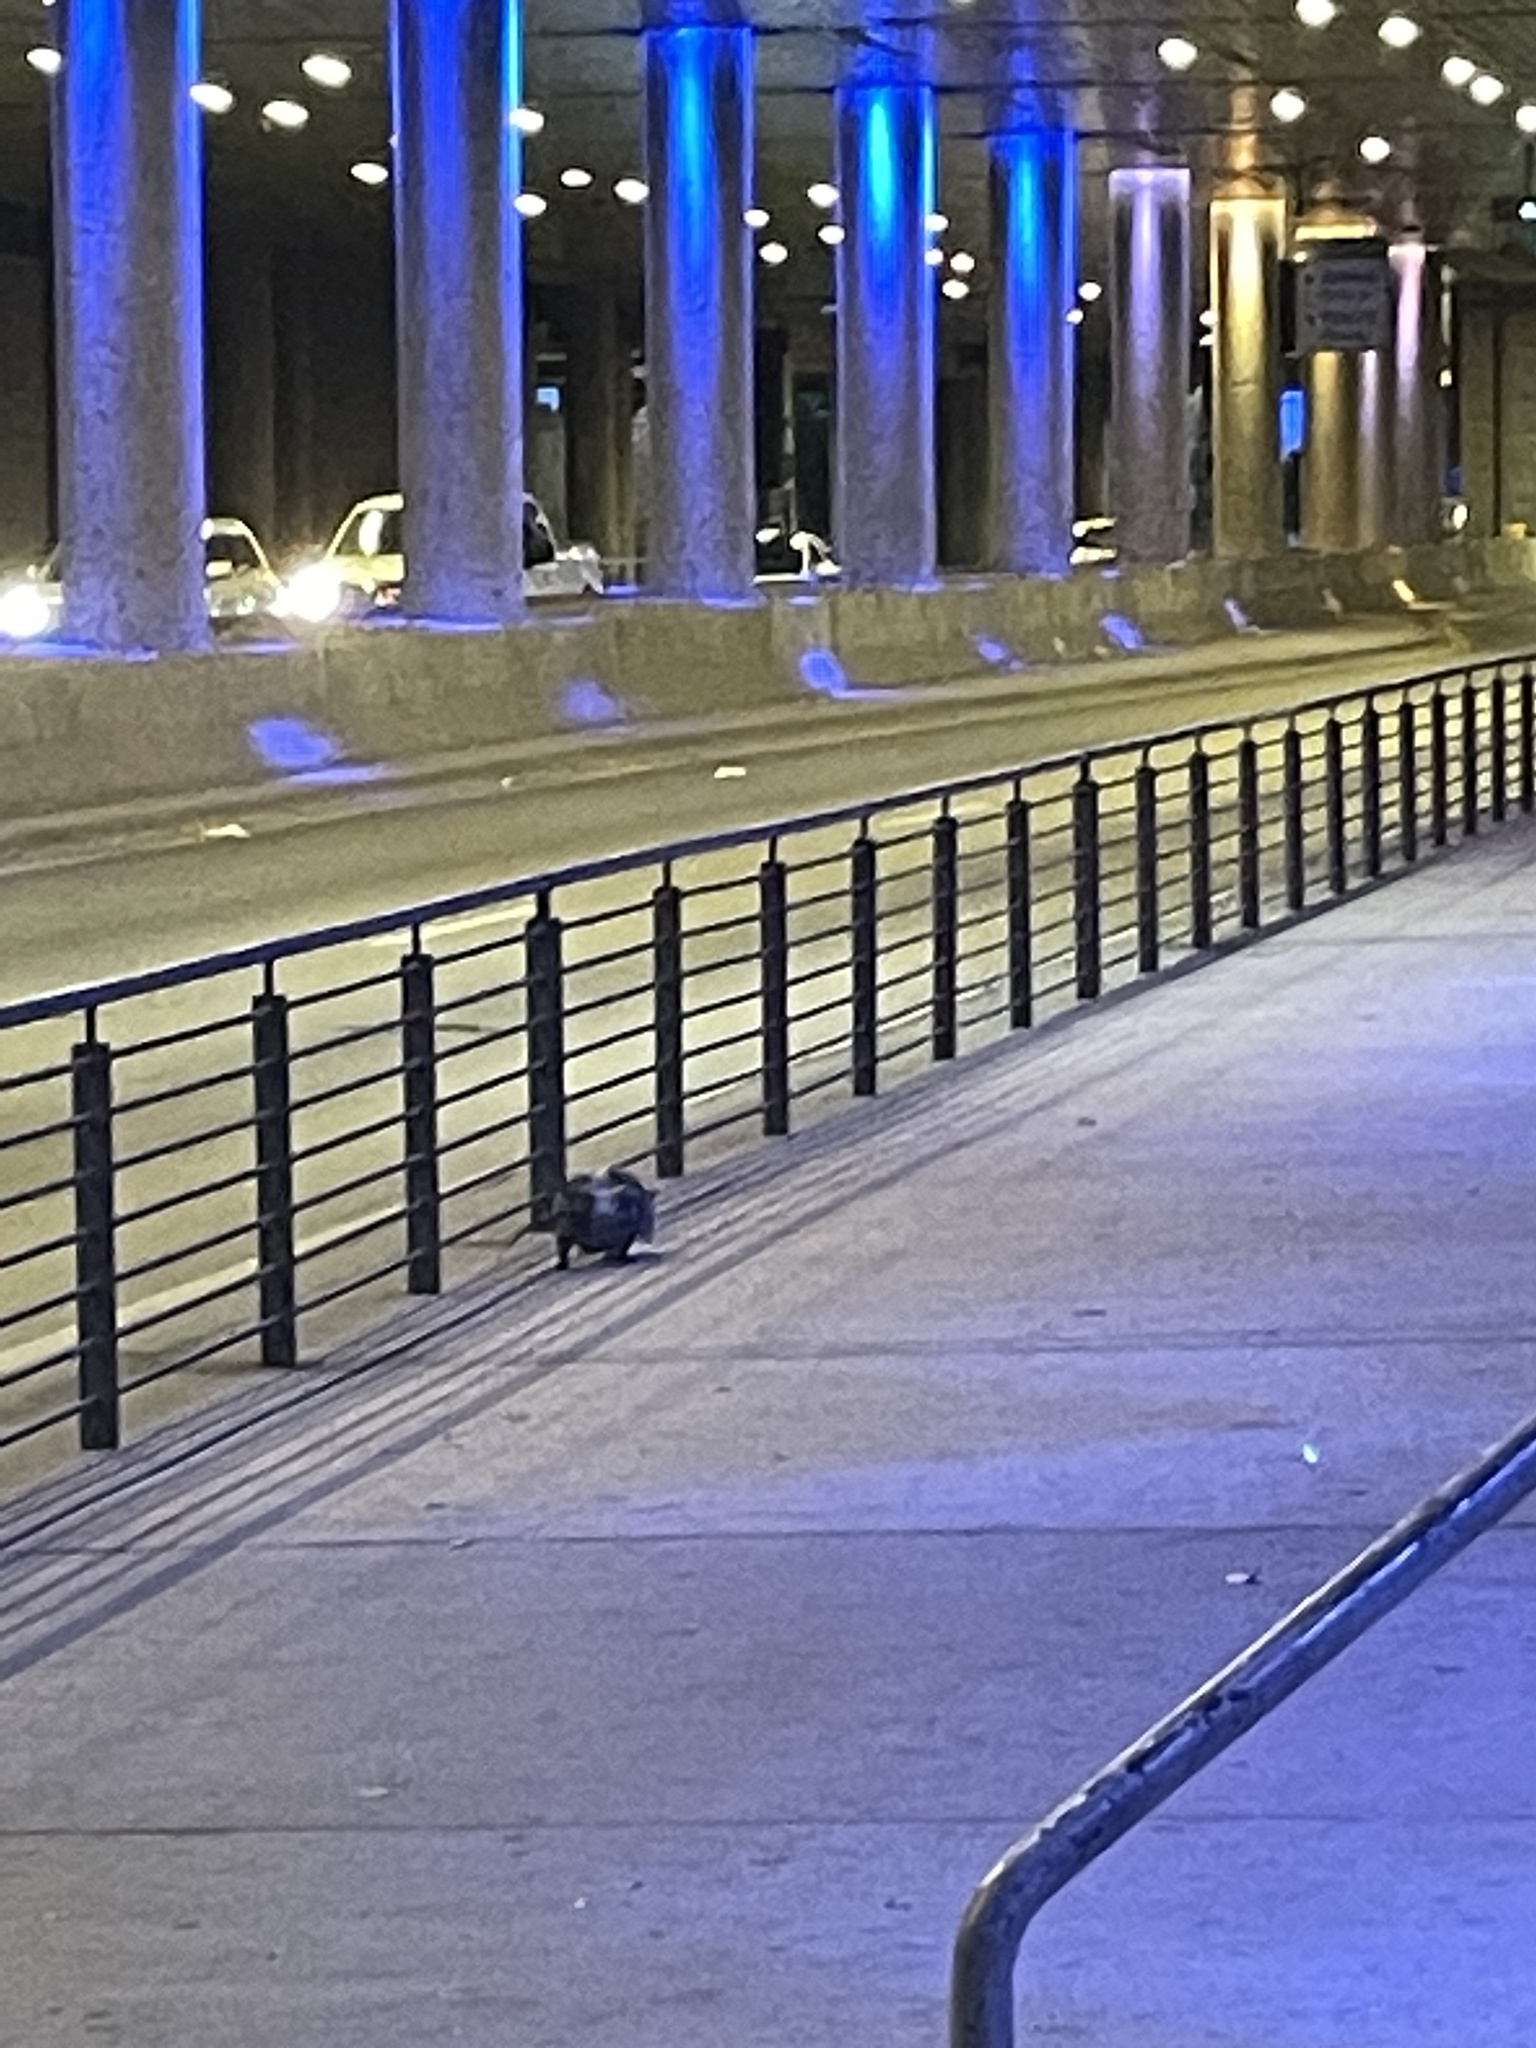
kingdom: Animalia
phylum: Chordata
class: Mammalia
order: Didelphimorphia
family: Didelphidae
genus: Didelphis
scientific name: Didelphis virginiana
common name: Virginia opossum
